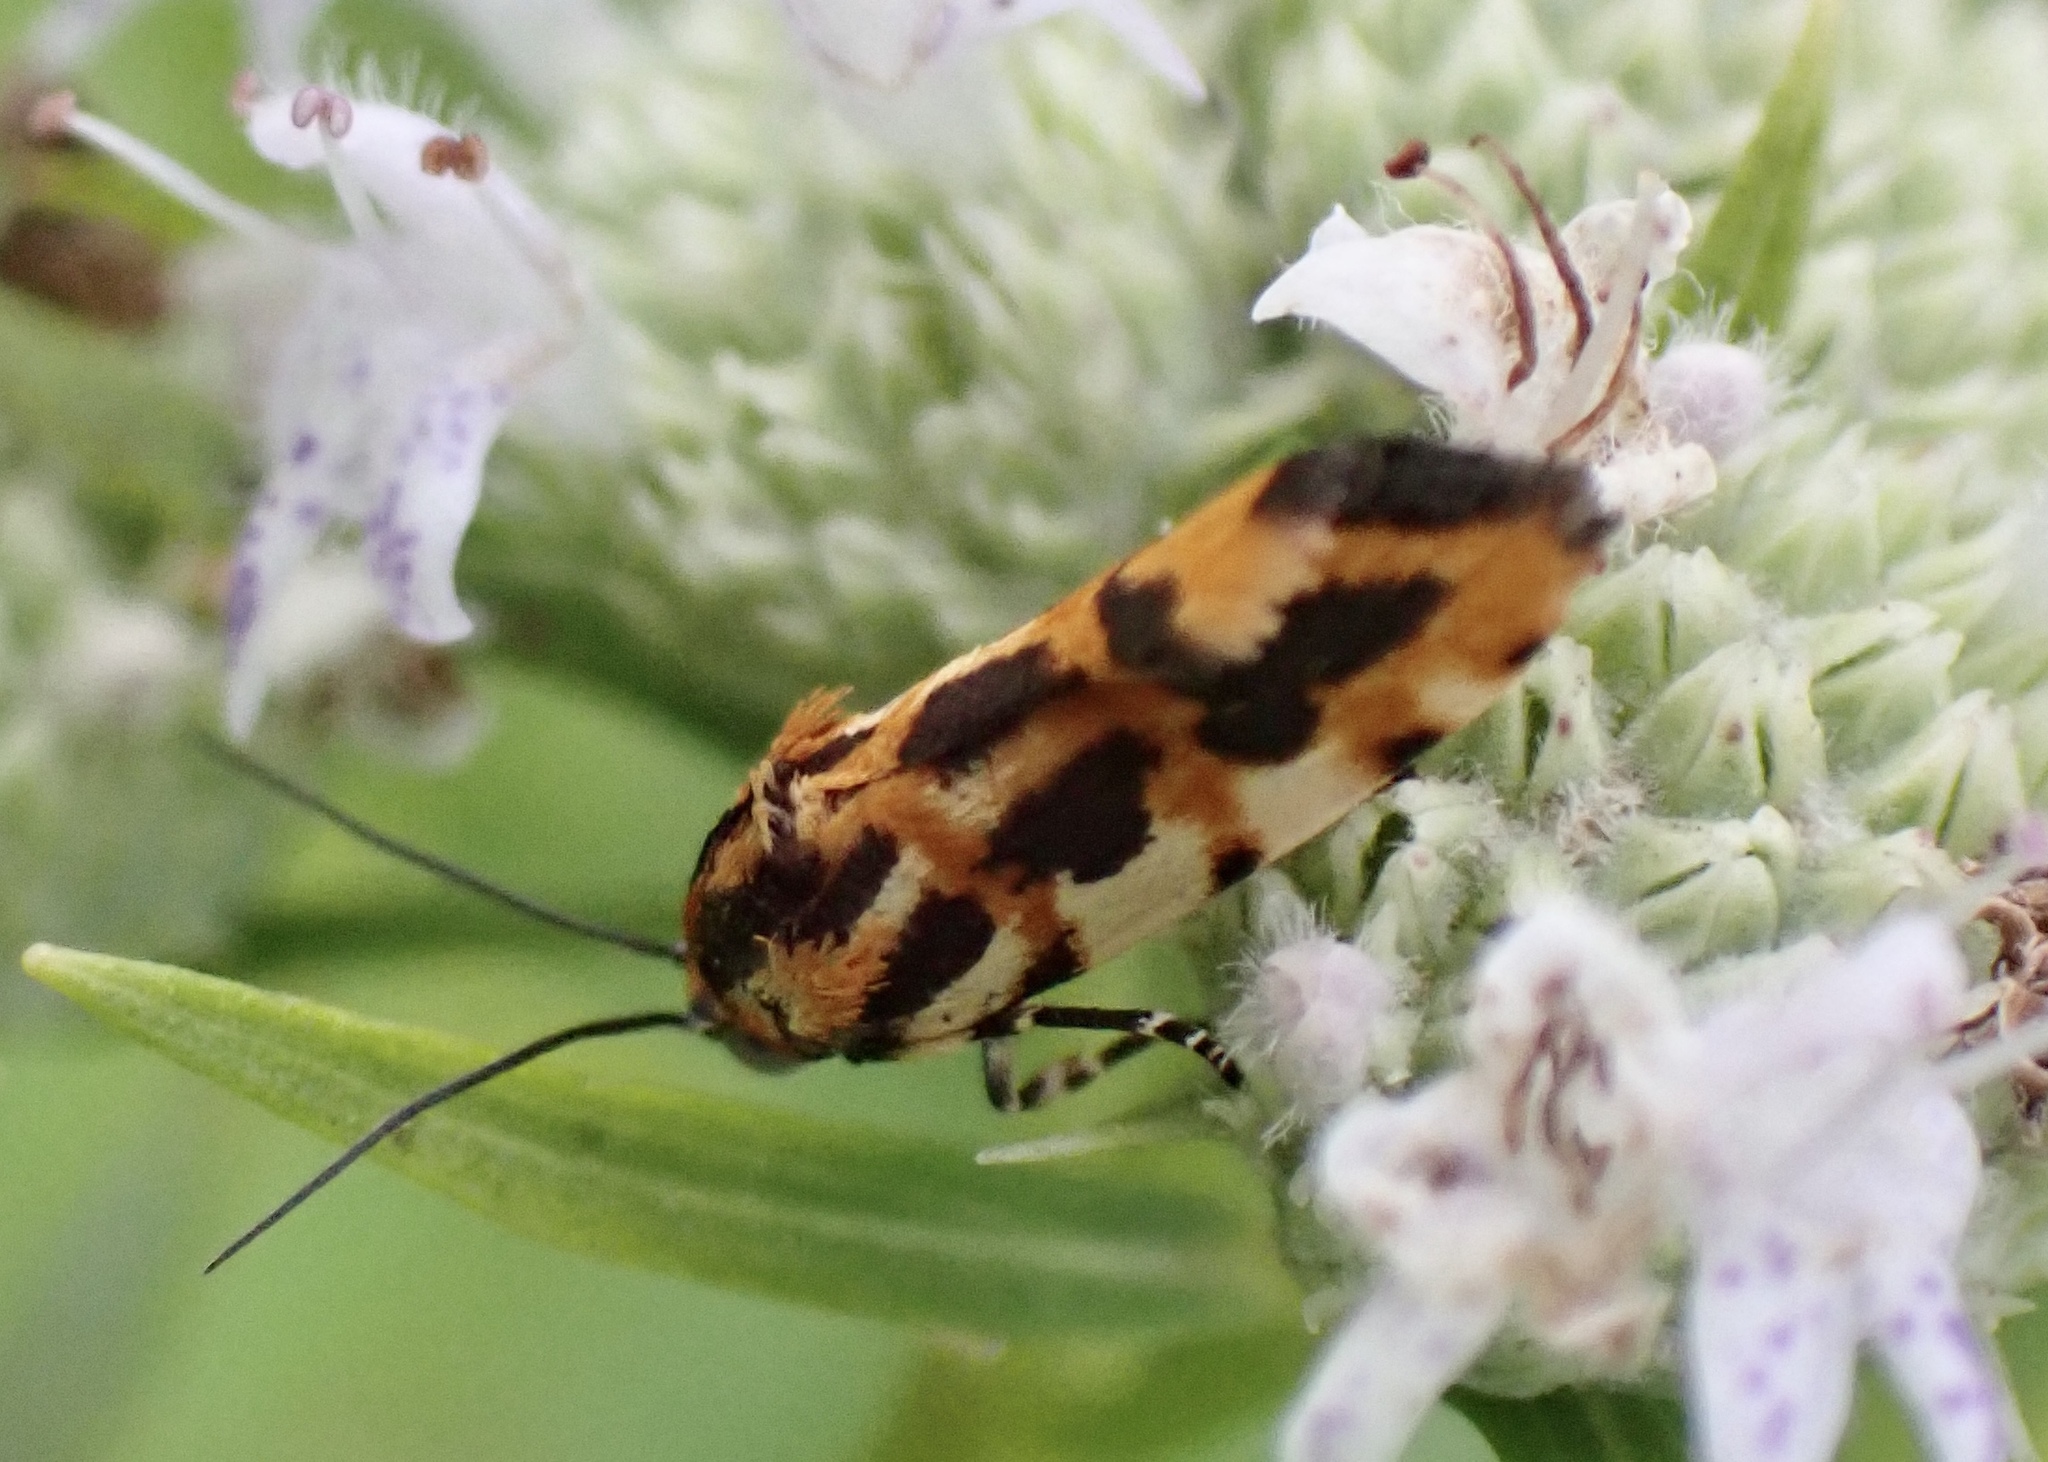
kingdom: Animalia
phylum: Arthropoda
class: Insecta
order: Lepidoptera
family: Noctuidae
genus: Acontia
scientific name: Acontia leo
